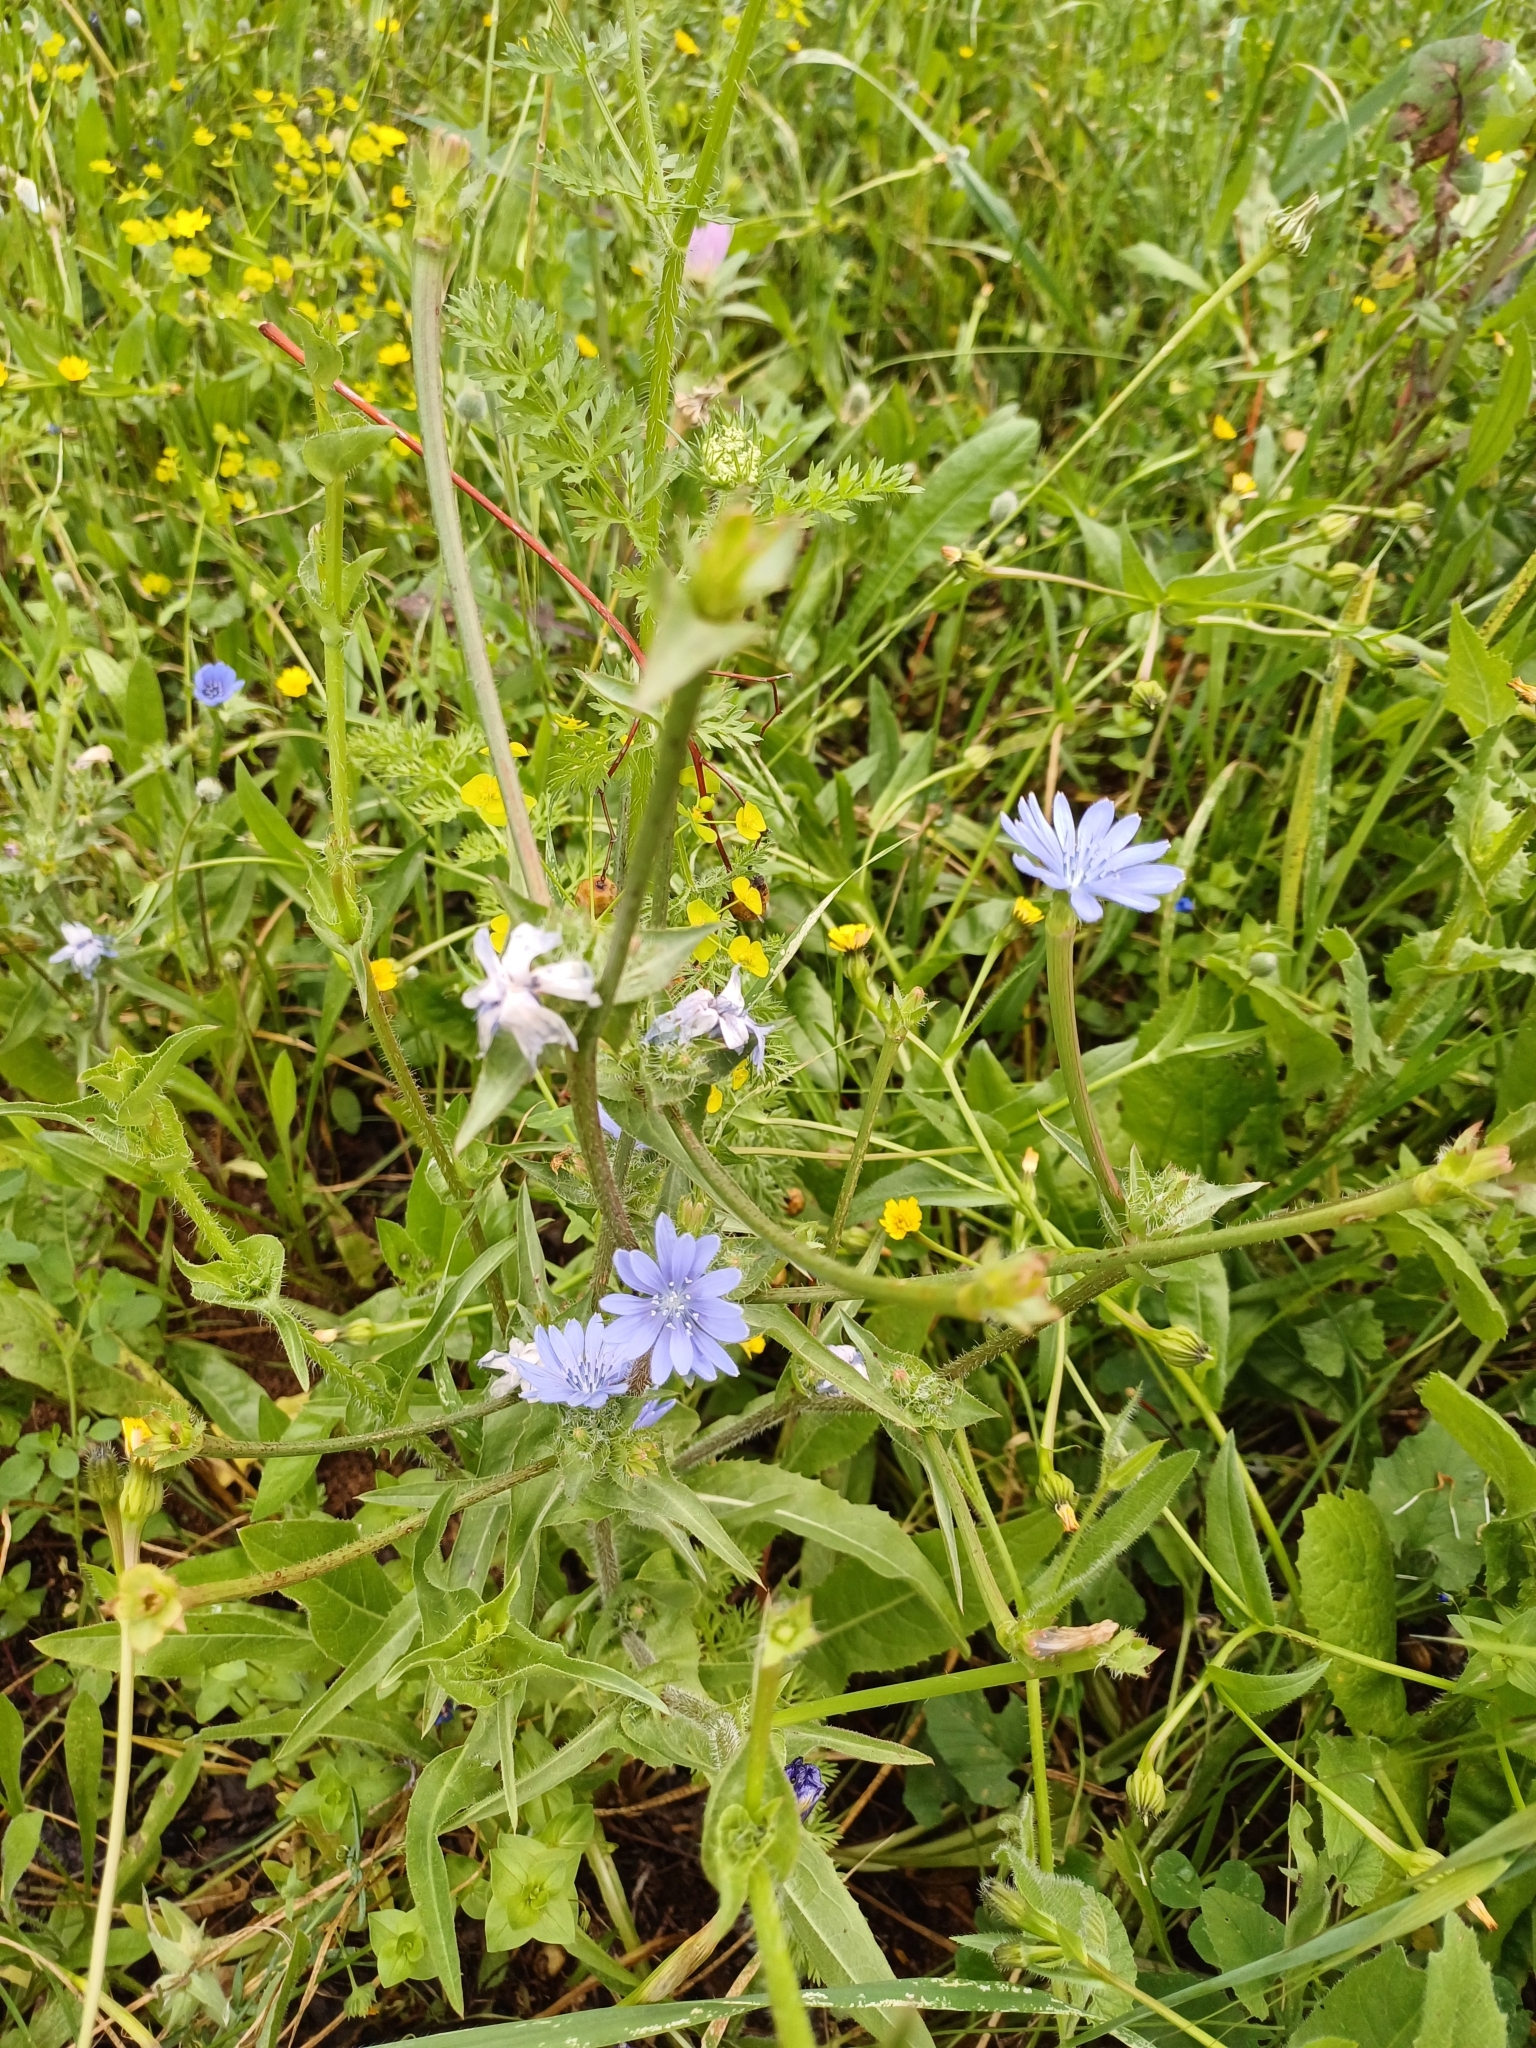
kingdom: Plantae
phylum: Tracheophyta
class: Magnoliopsida
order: Asterales
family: Asteraceae
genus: Cichorium
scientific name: Cichorium intybus
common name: Chicory
